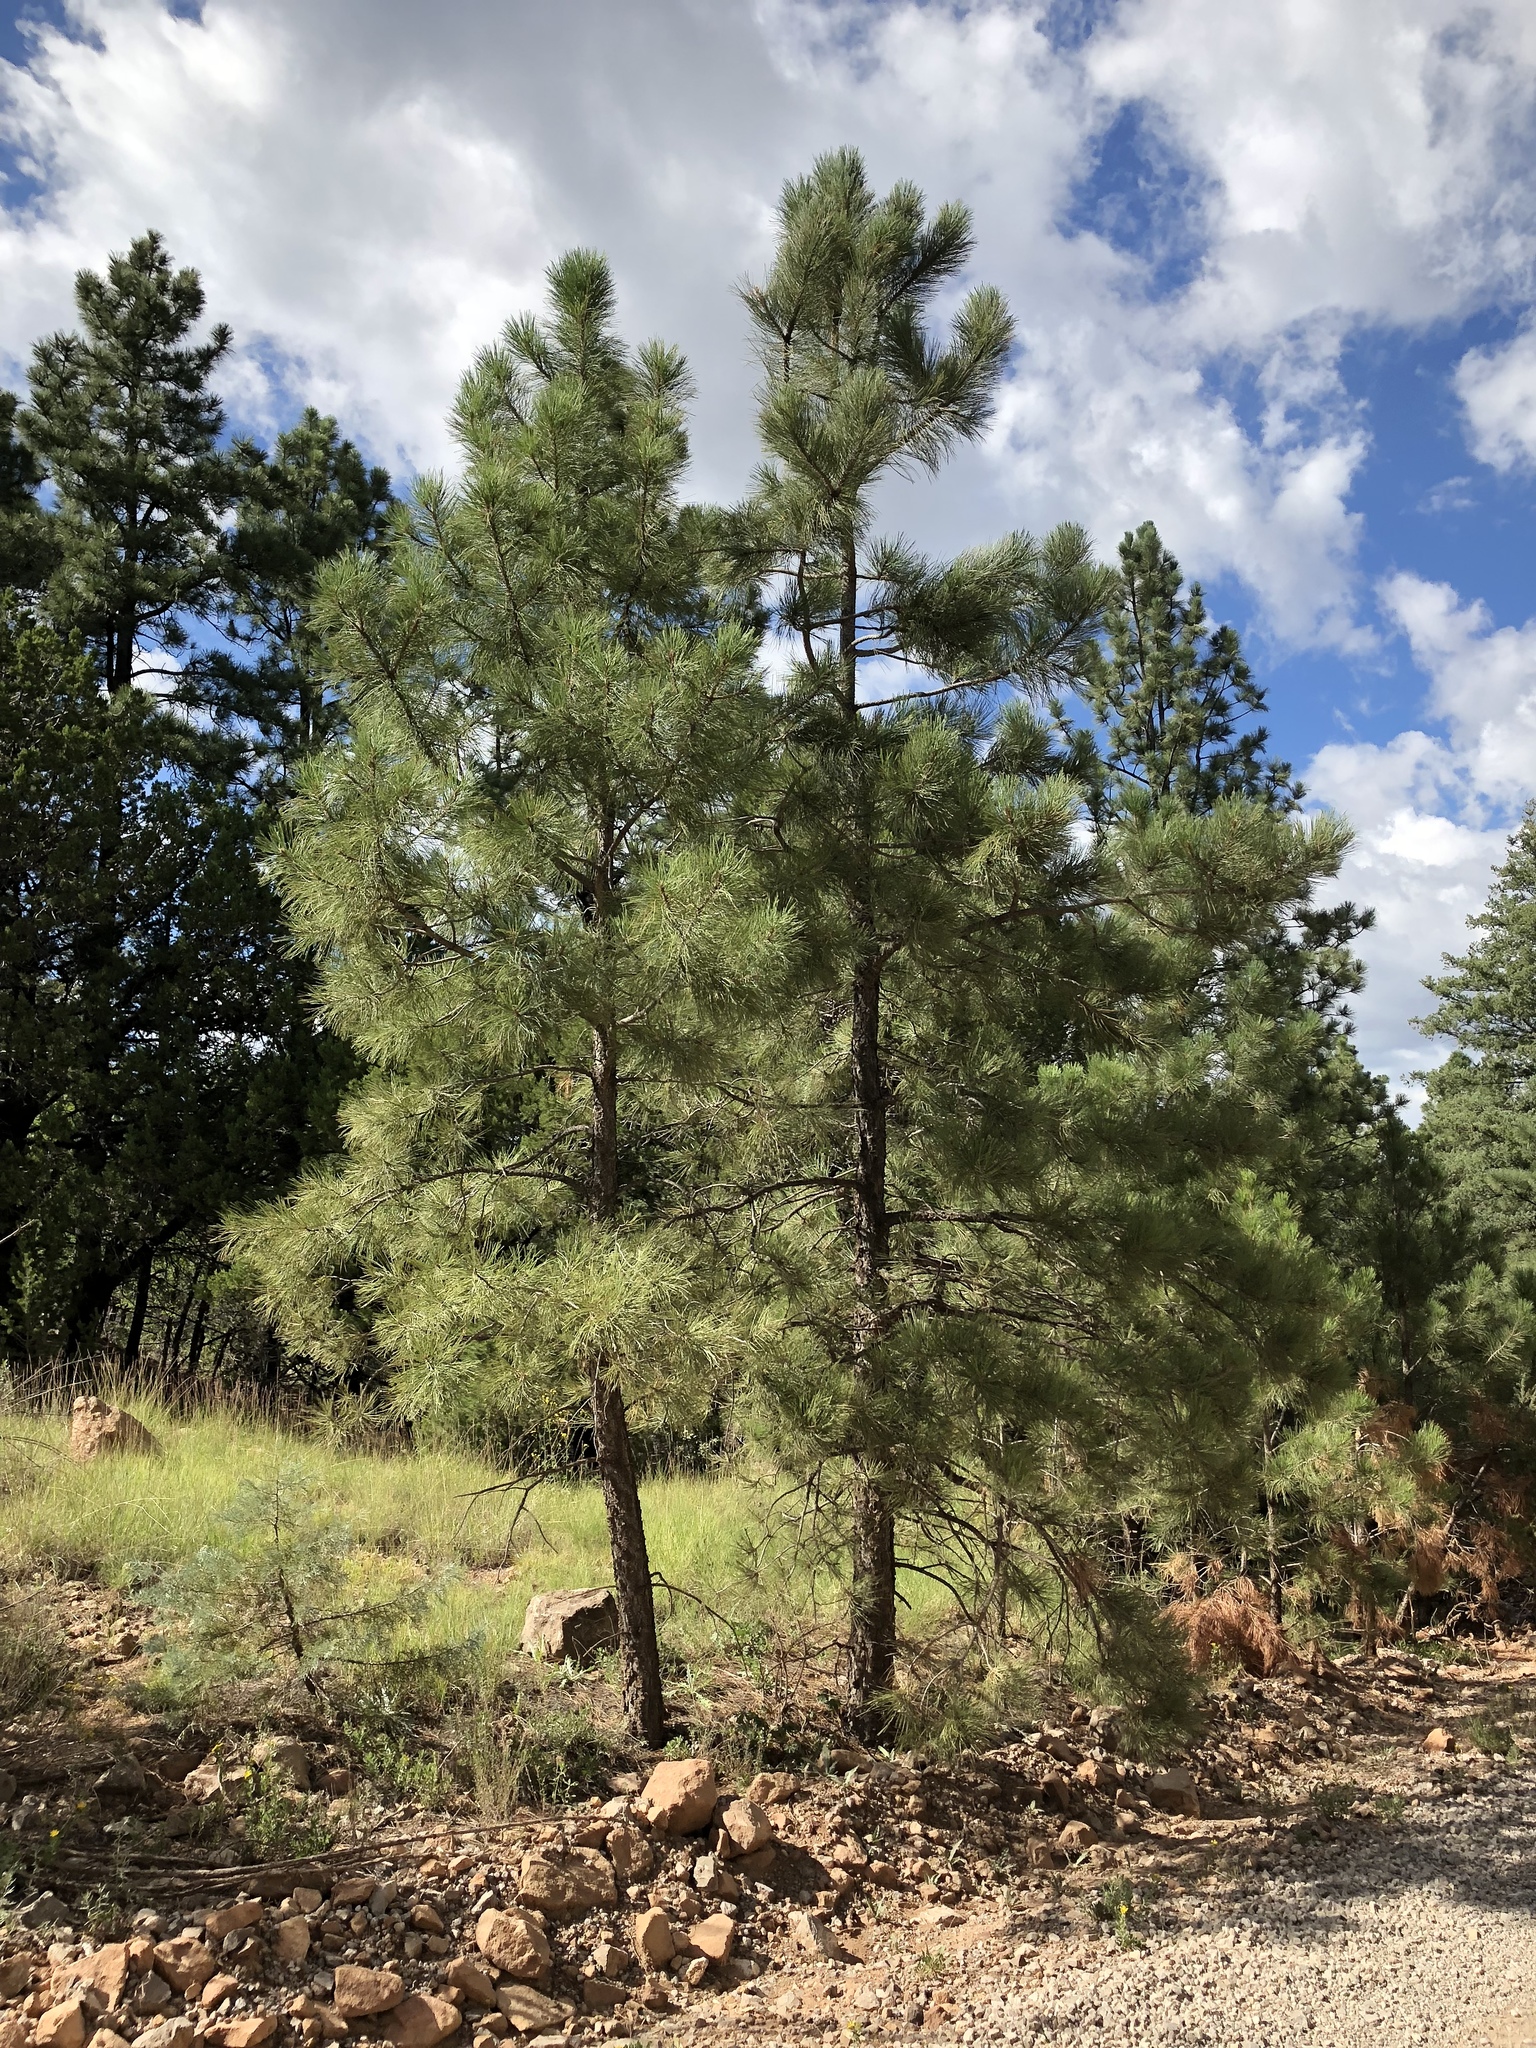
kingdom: Plantae
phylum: Tracheophyta
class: Pinopsida
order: Pinales
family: Pinaceae
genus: Pinus
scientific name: Pinus ponderosa
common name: Western yellow-pine
